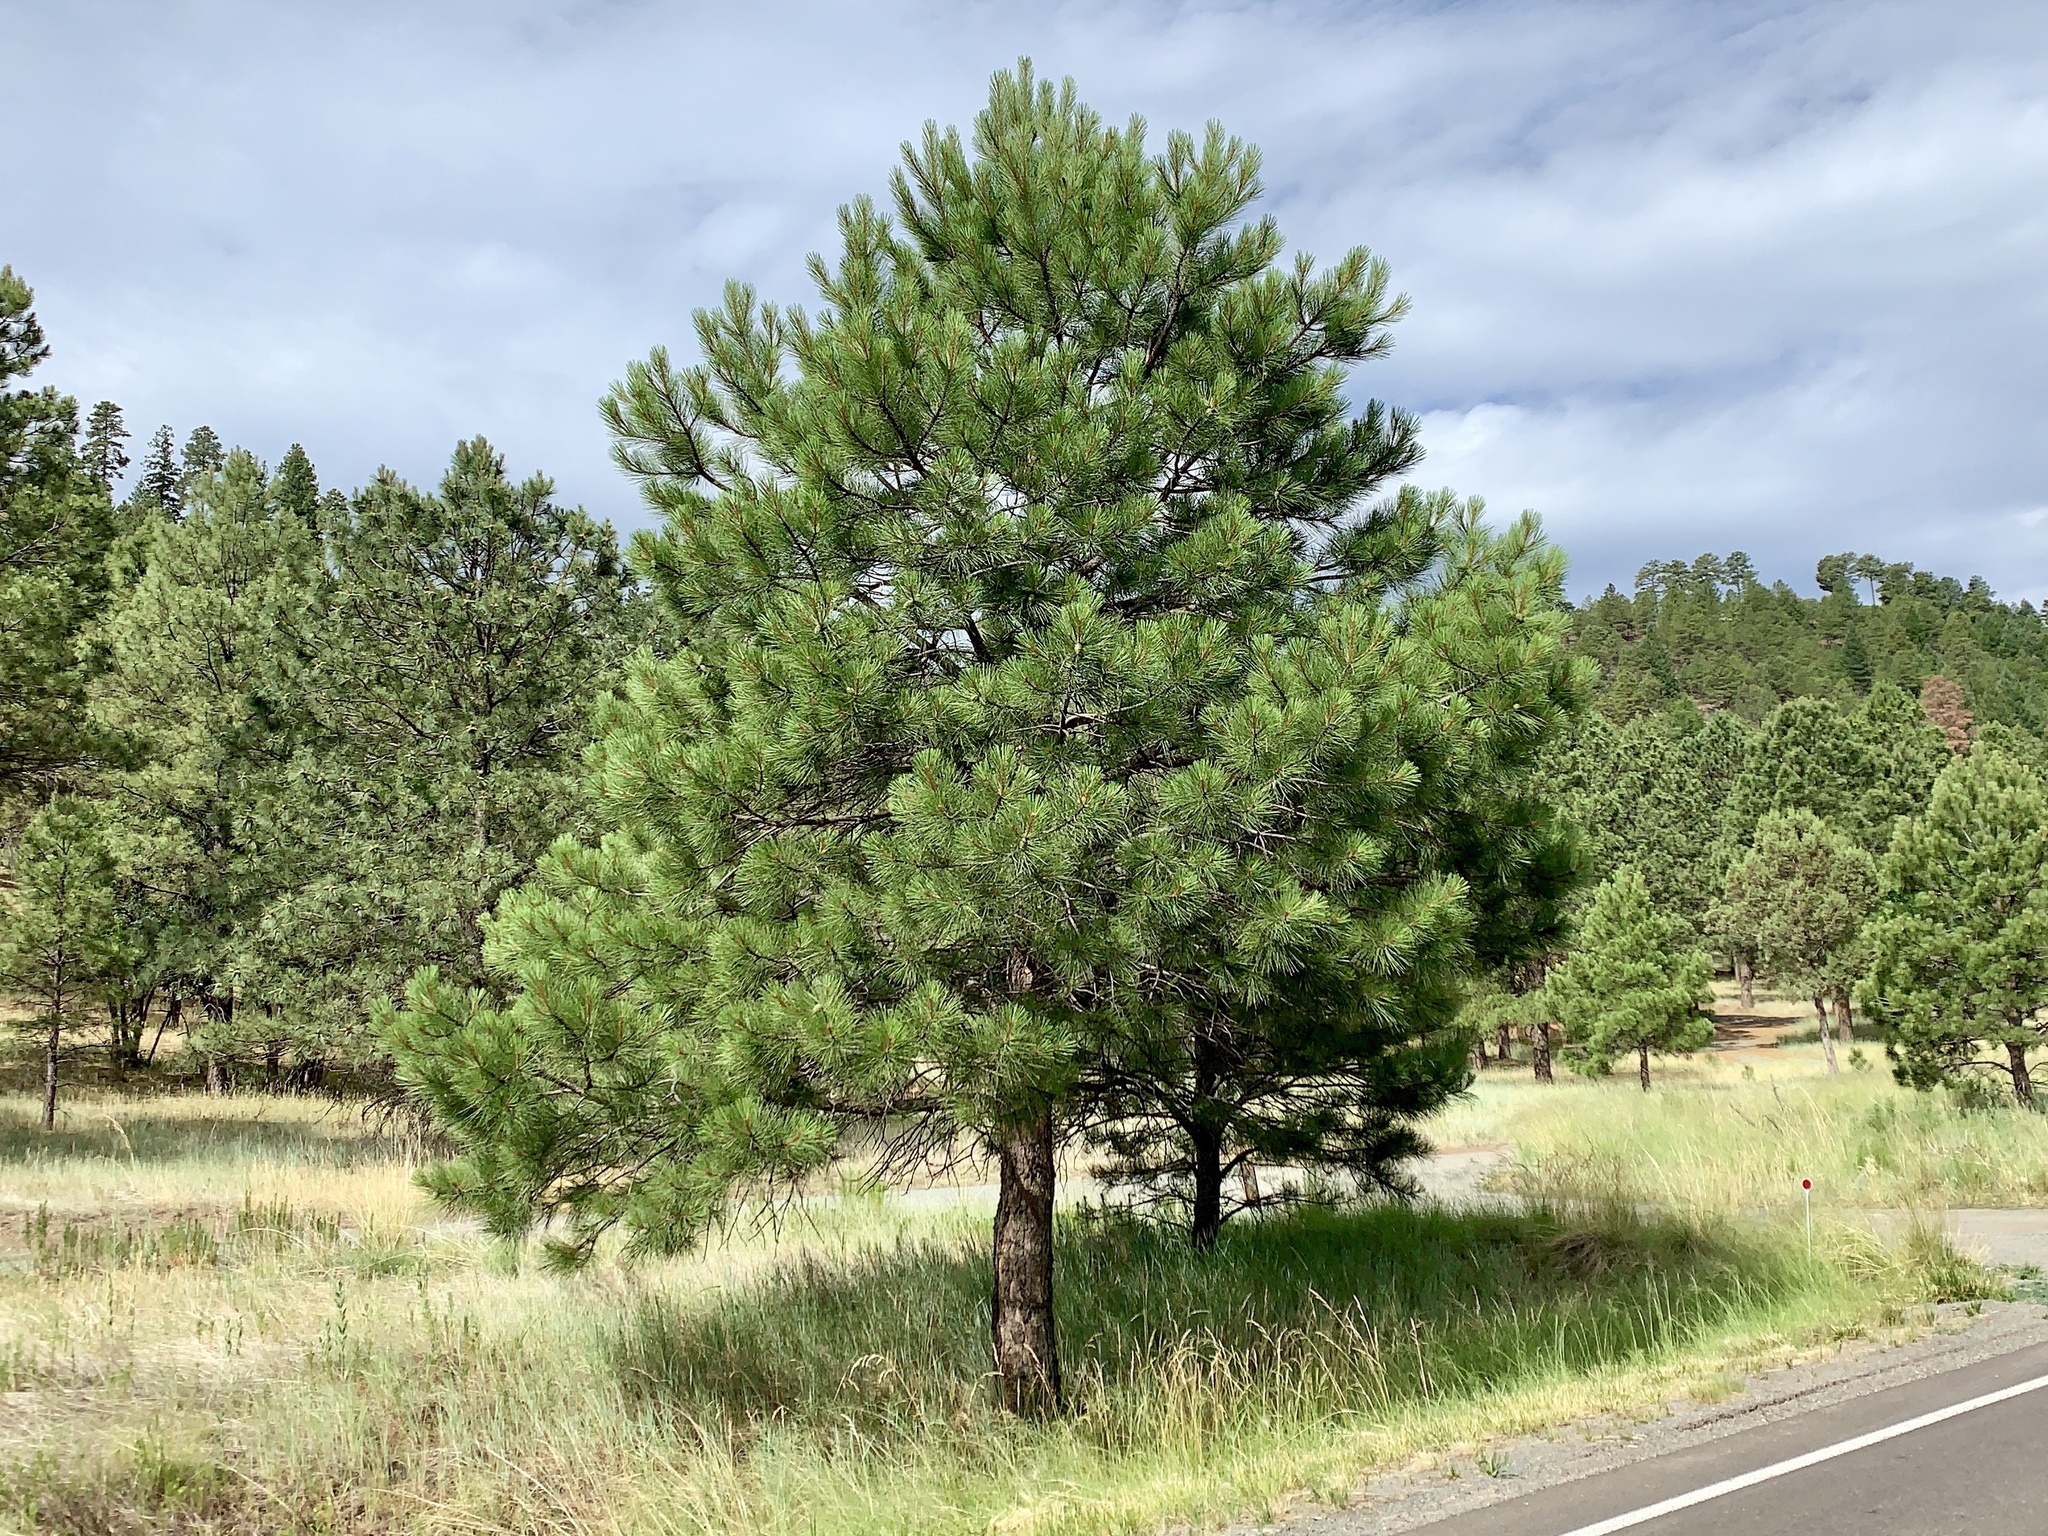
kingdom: Plantae
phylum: Tracheophyta
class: Pinopsida
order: Pinales
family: Pinaceae
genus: Pinus
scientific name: Pinus ponderosa
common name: Western yellow-pine
